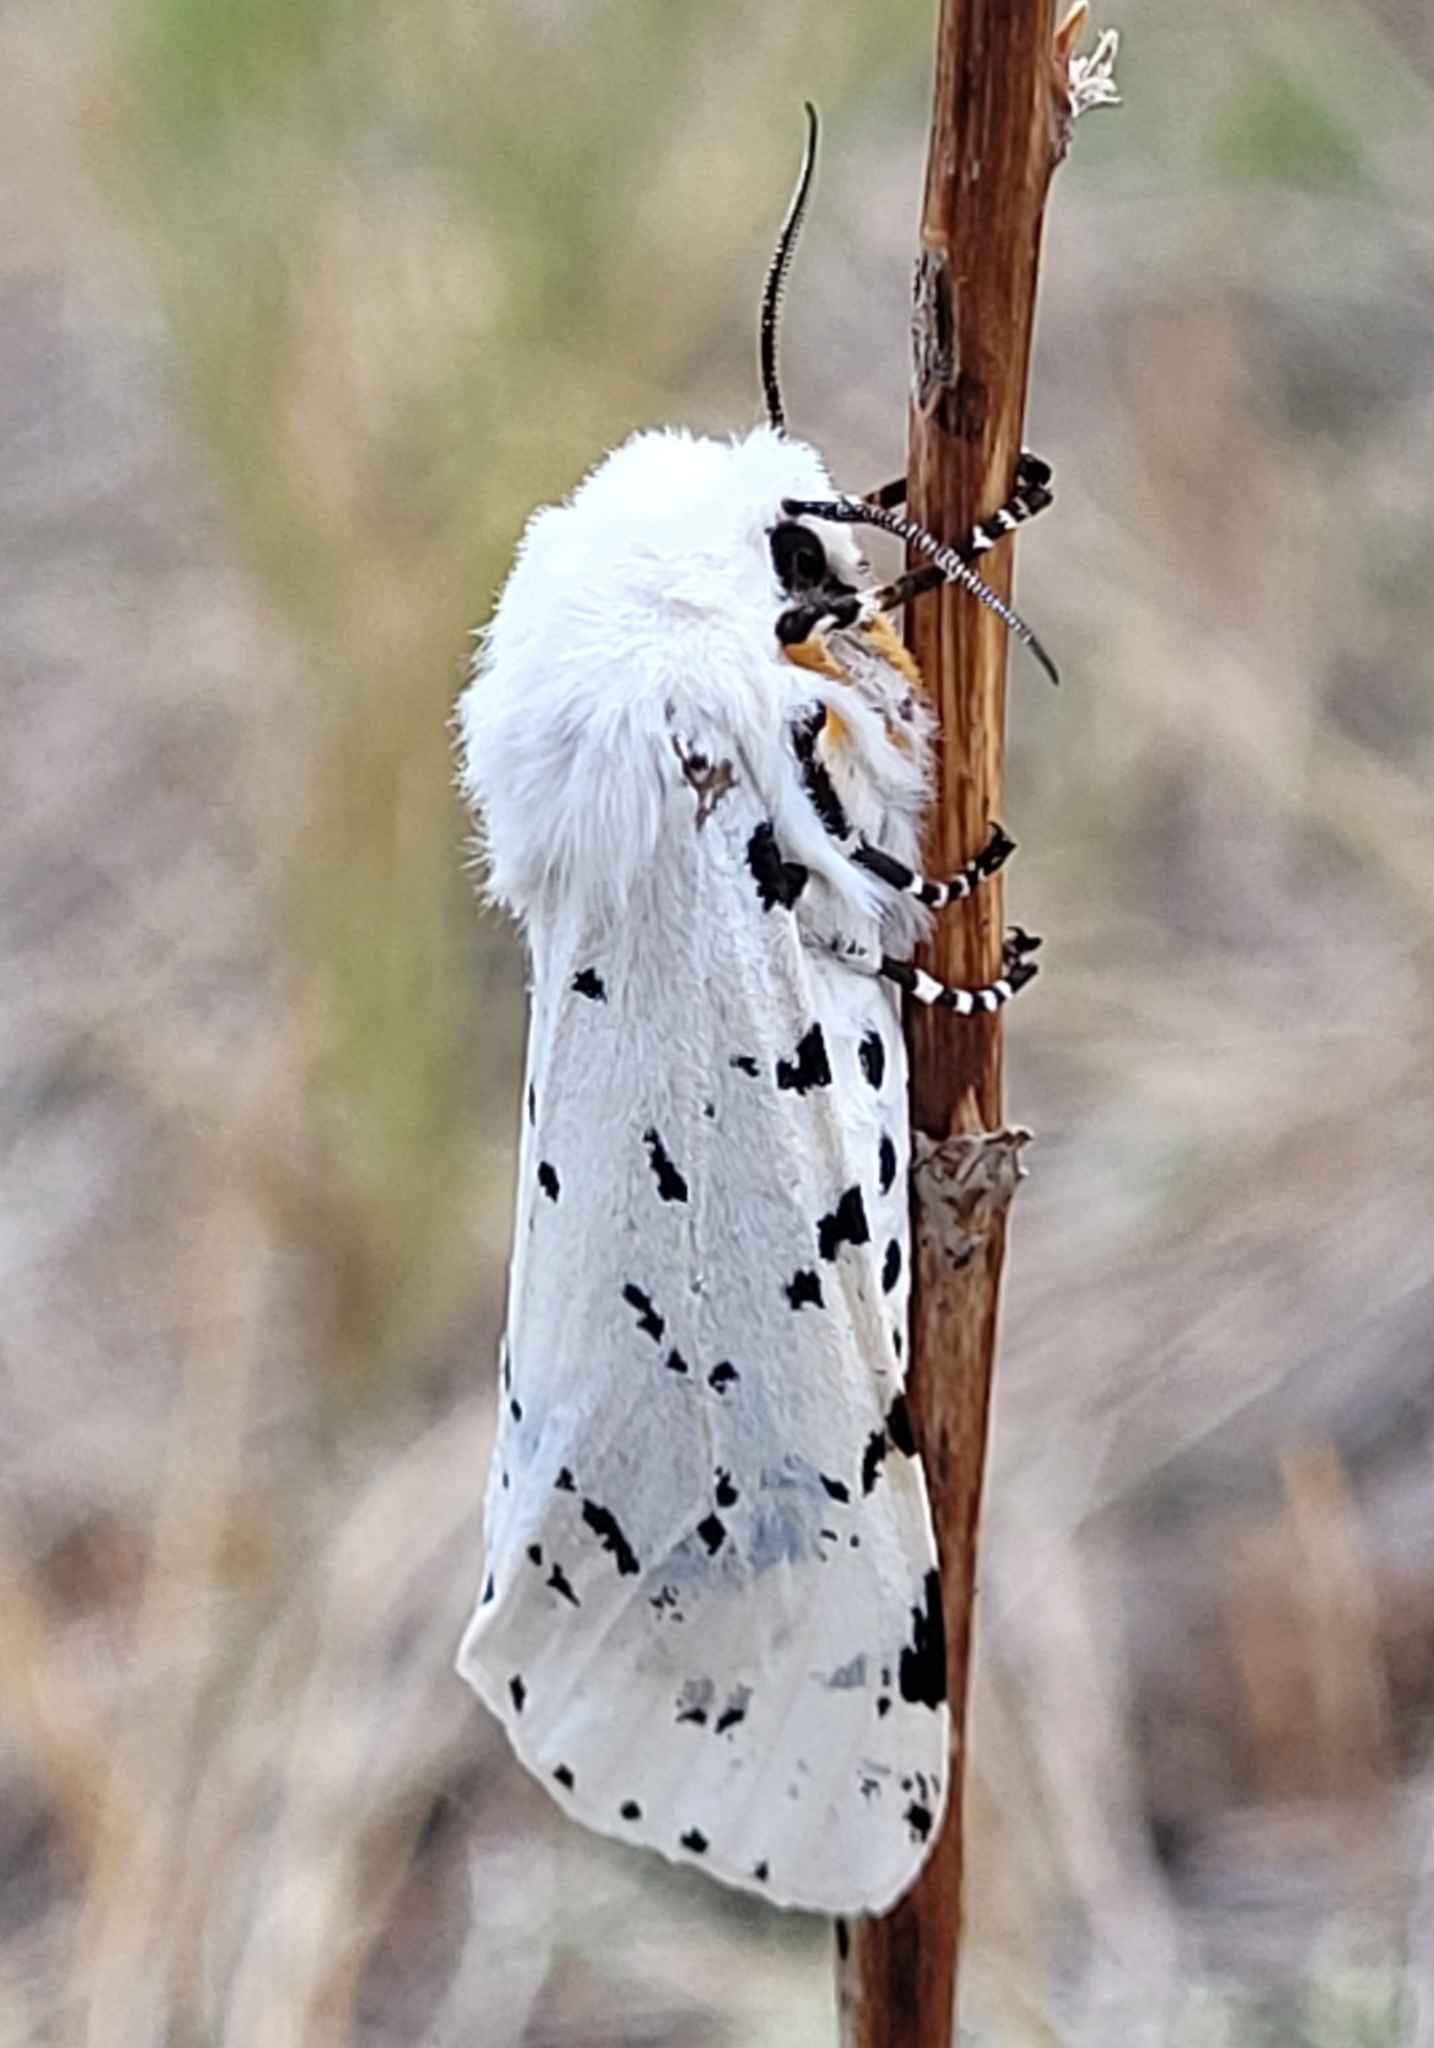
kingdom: Animalia
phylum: Arthropoda
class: Insecta
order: Lepidoptera
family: Erebidae
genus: Estigmene
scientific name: Estigmene acrea
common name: Salt marsh moth
